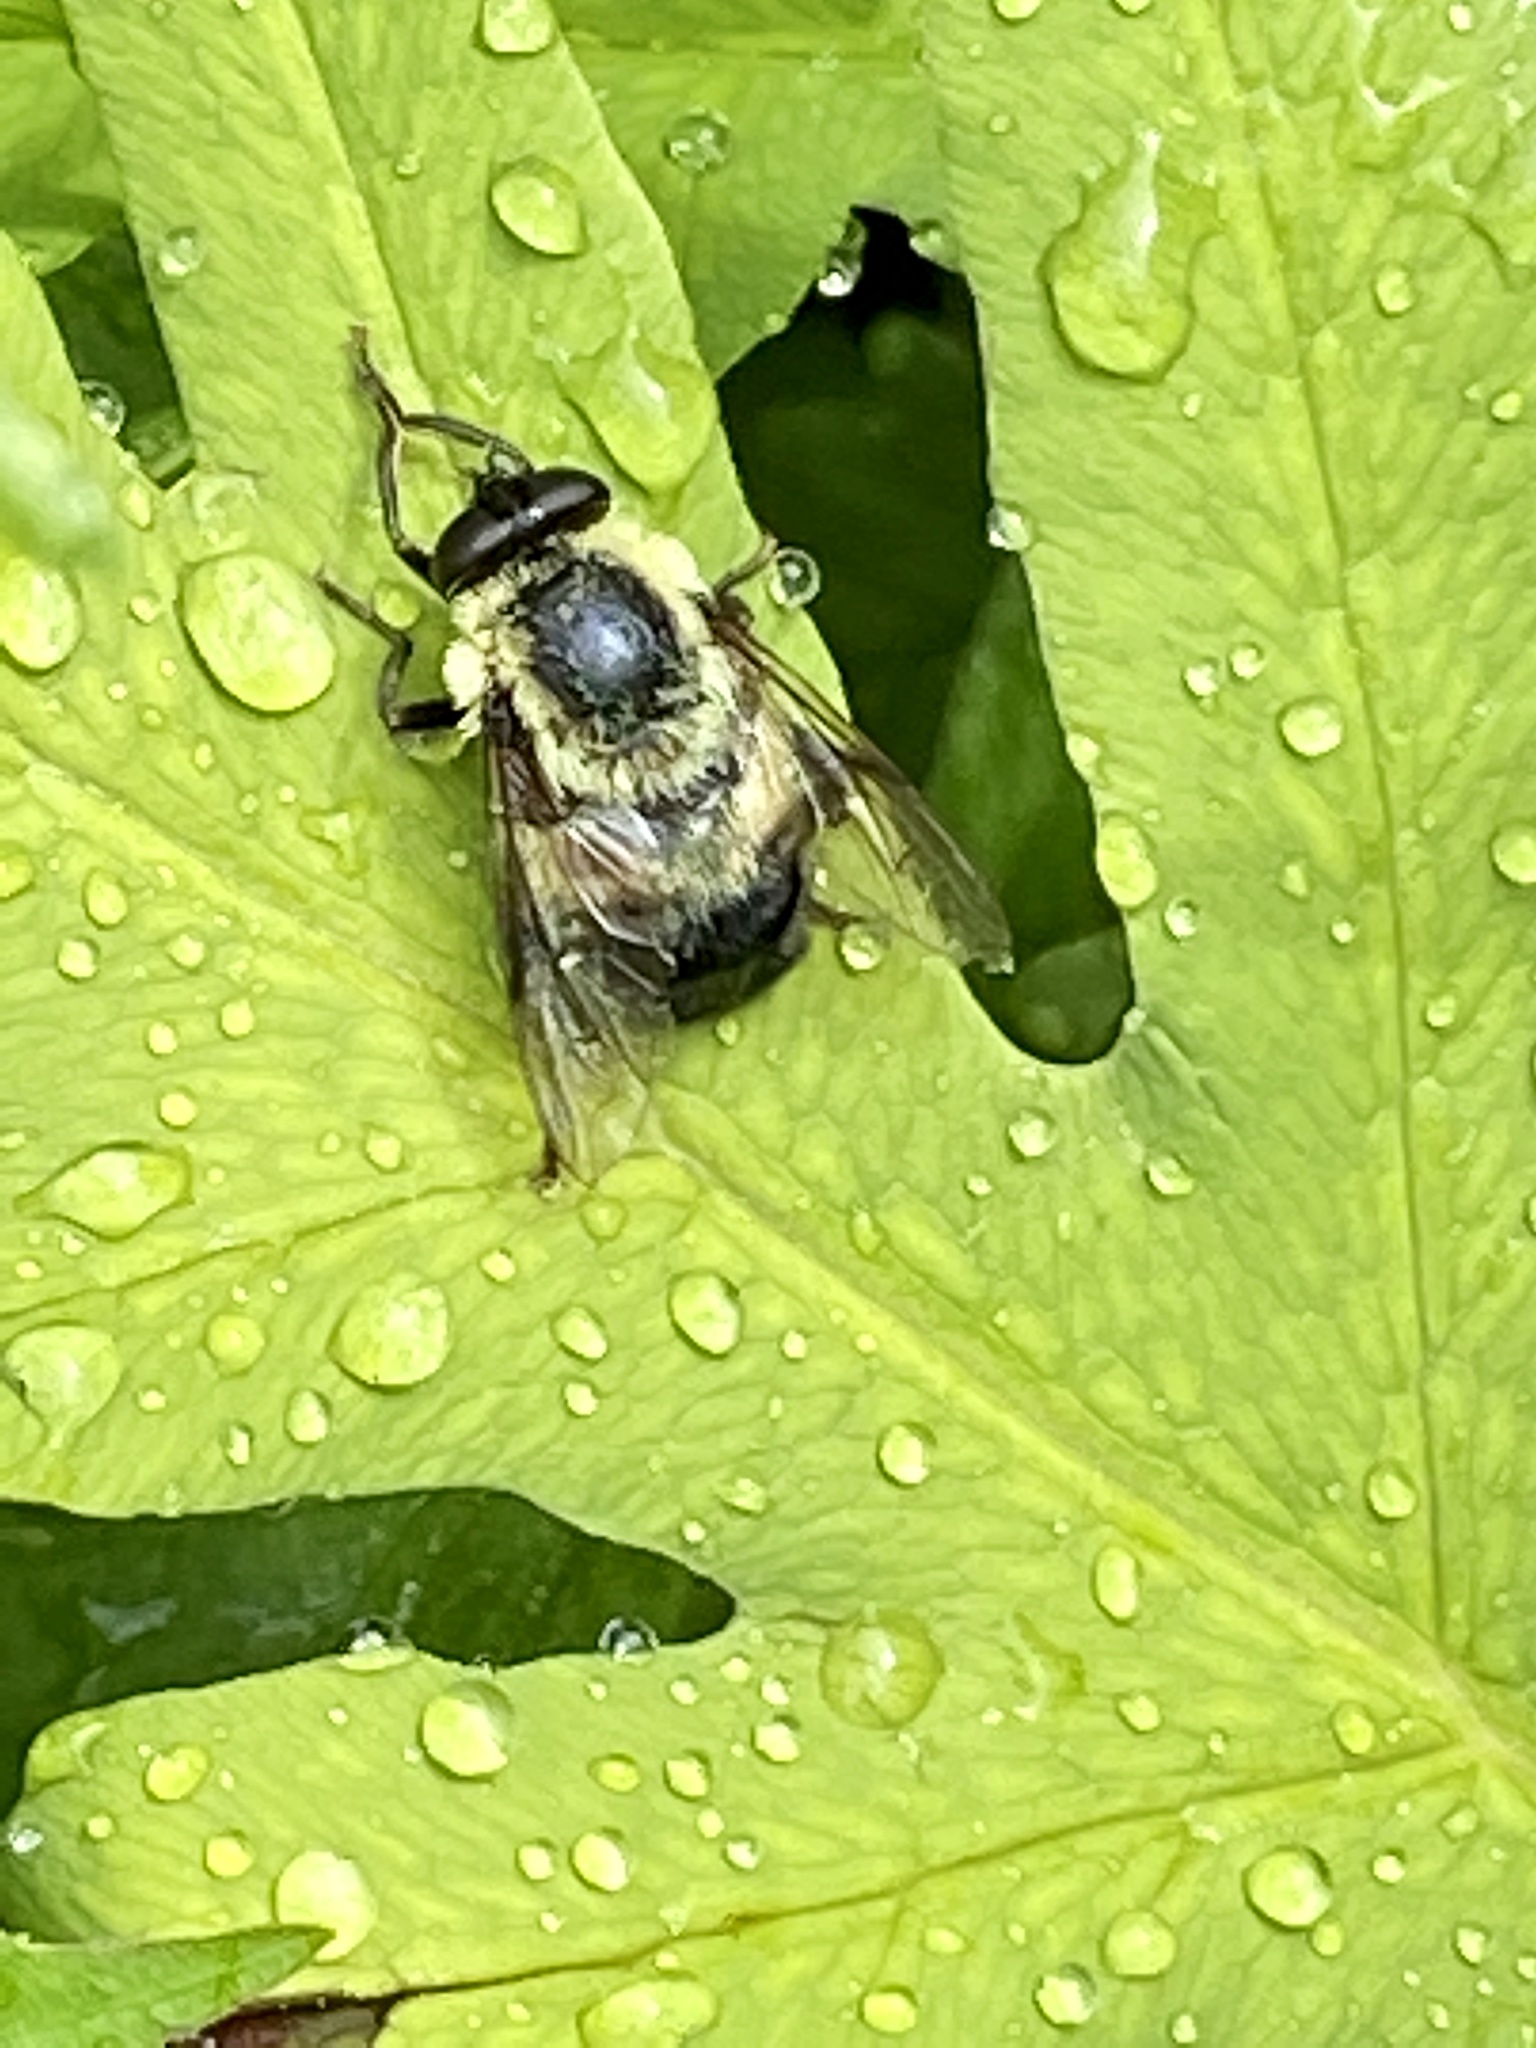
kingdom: Animalia
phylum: Arthropoda
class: Insecta
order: Diptera
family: Syrphidae
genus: Imatisma
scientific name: Imatisma posticata
